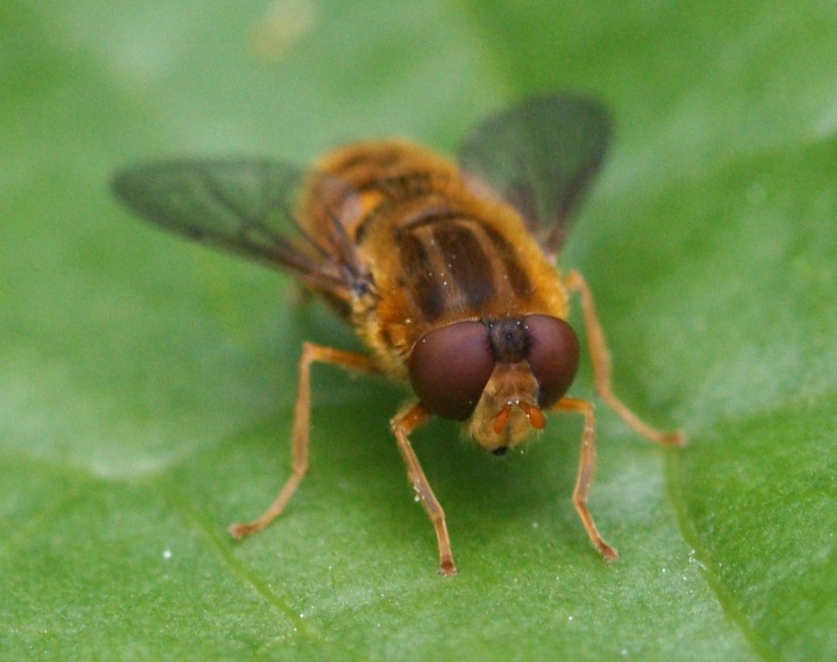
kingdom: Animalia
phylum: Arthropoda
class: Insecta
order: Diptera
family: Syrphidae
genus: Parhelophilus
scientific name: Parhelophilus
